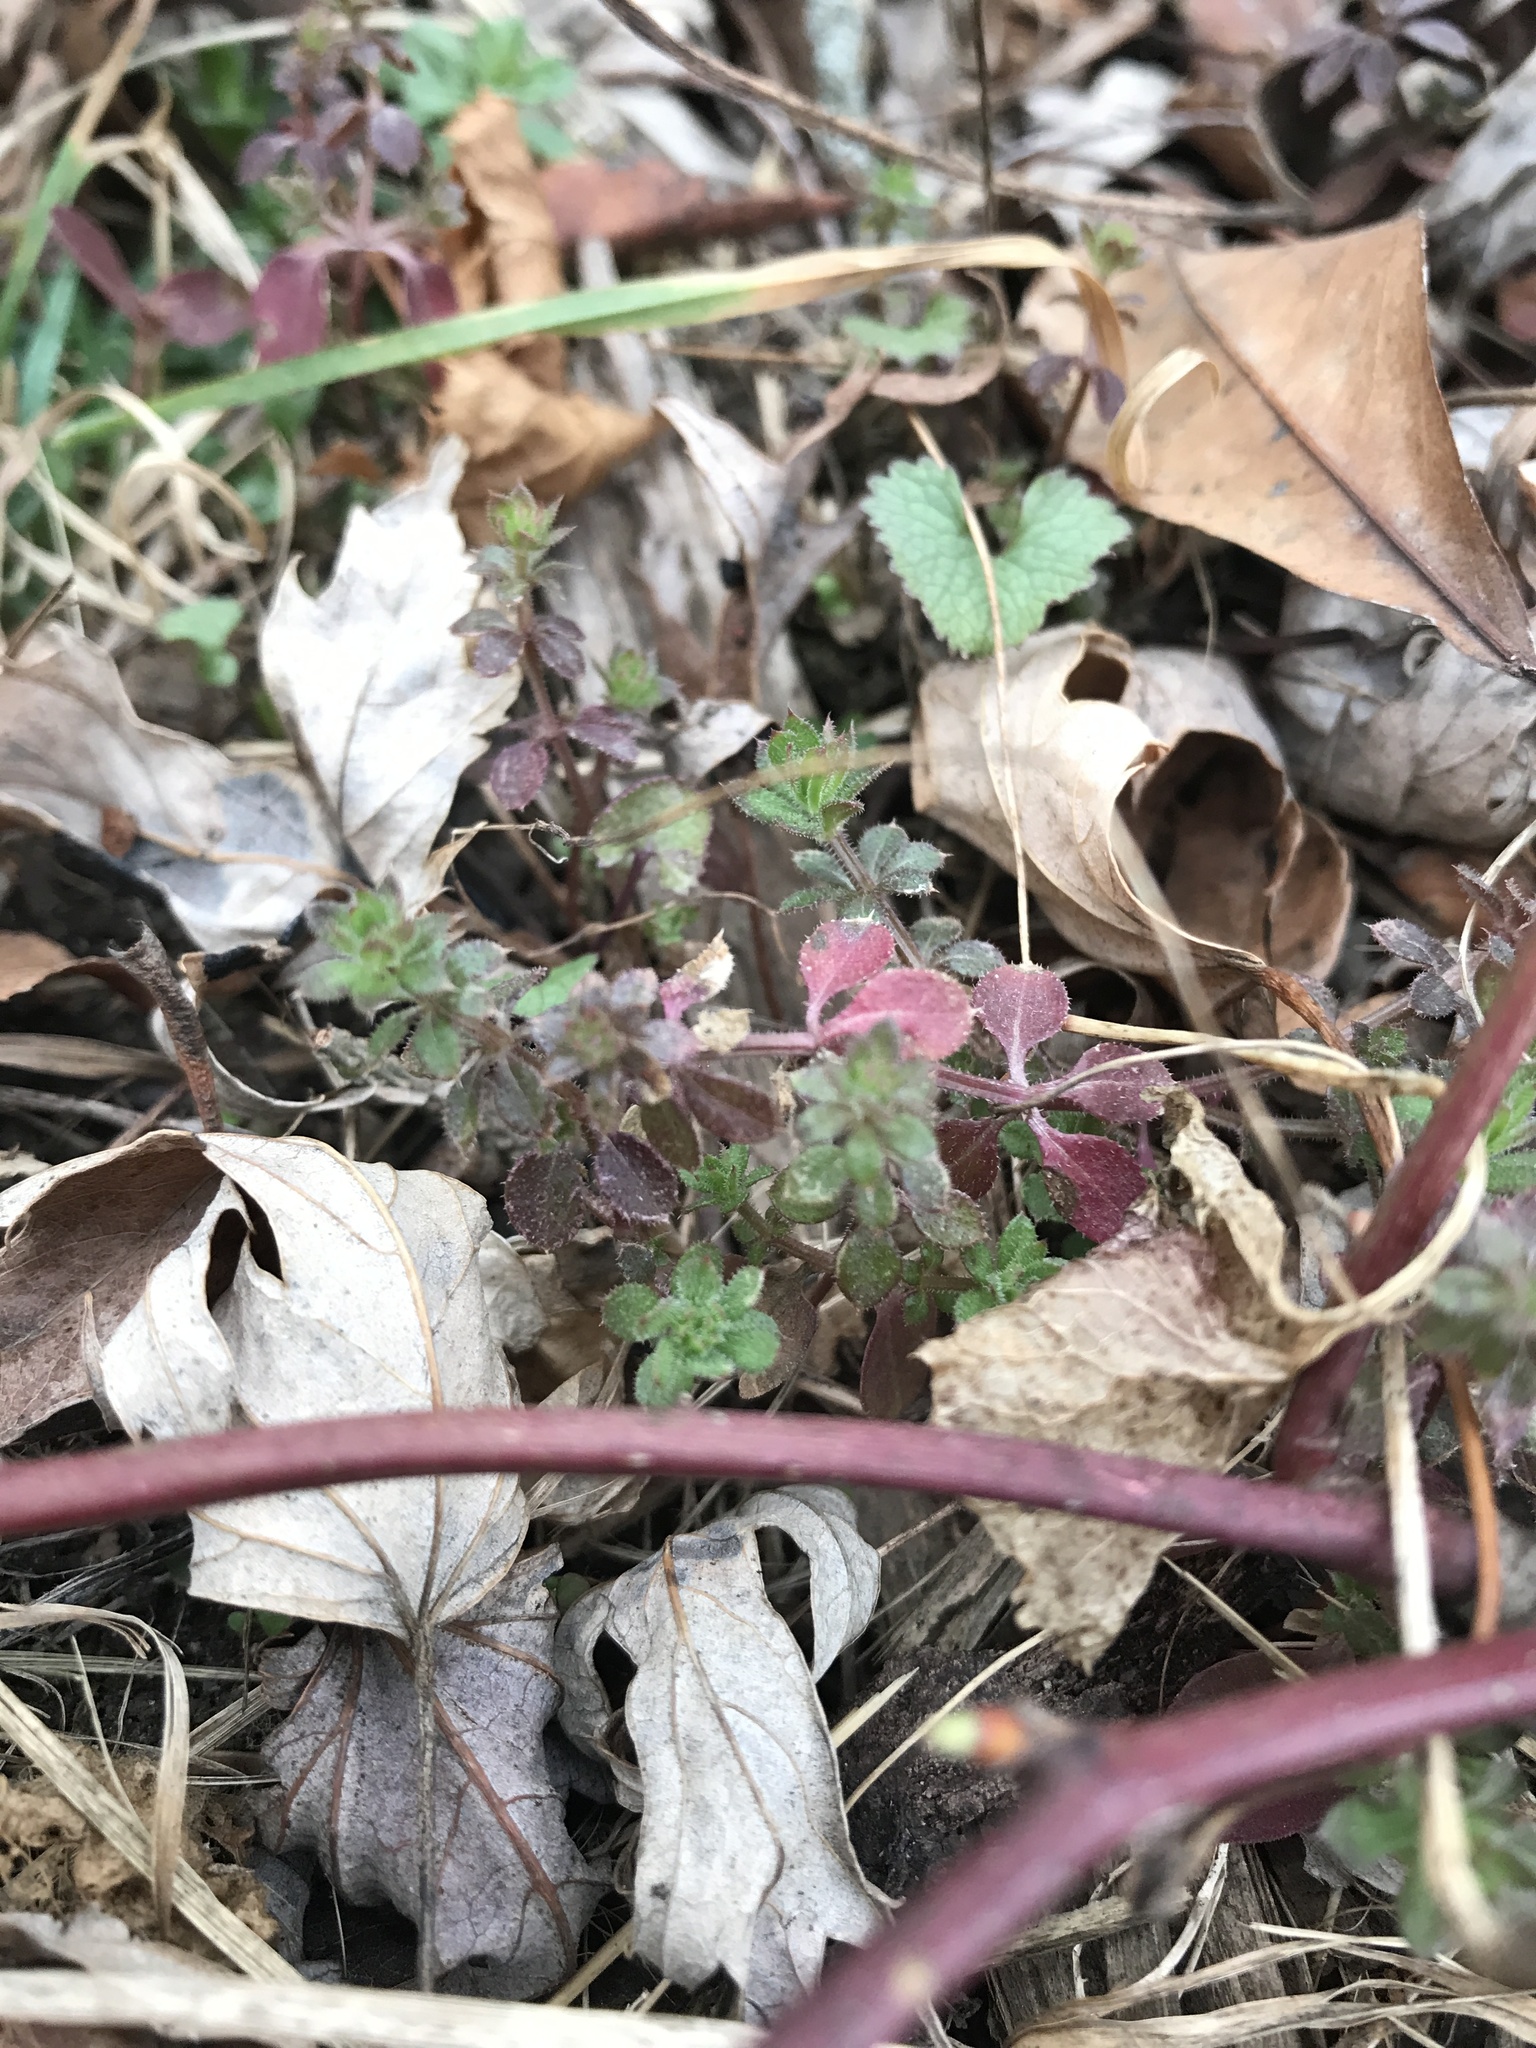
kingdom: Plantae
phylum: Tracheophyta
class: Magnoliopsida
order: Gentianales
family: Rubiaceae
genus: Galium
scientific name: Galium aparine
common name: Cleavers
